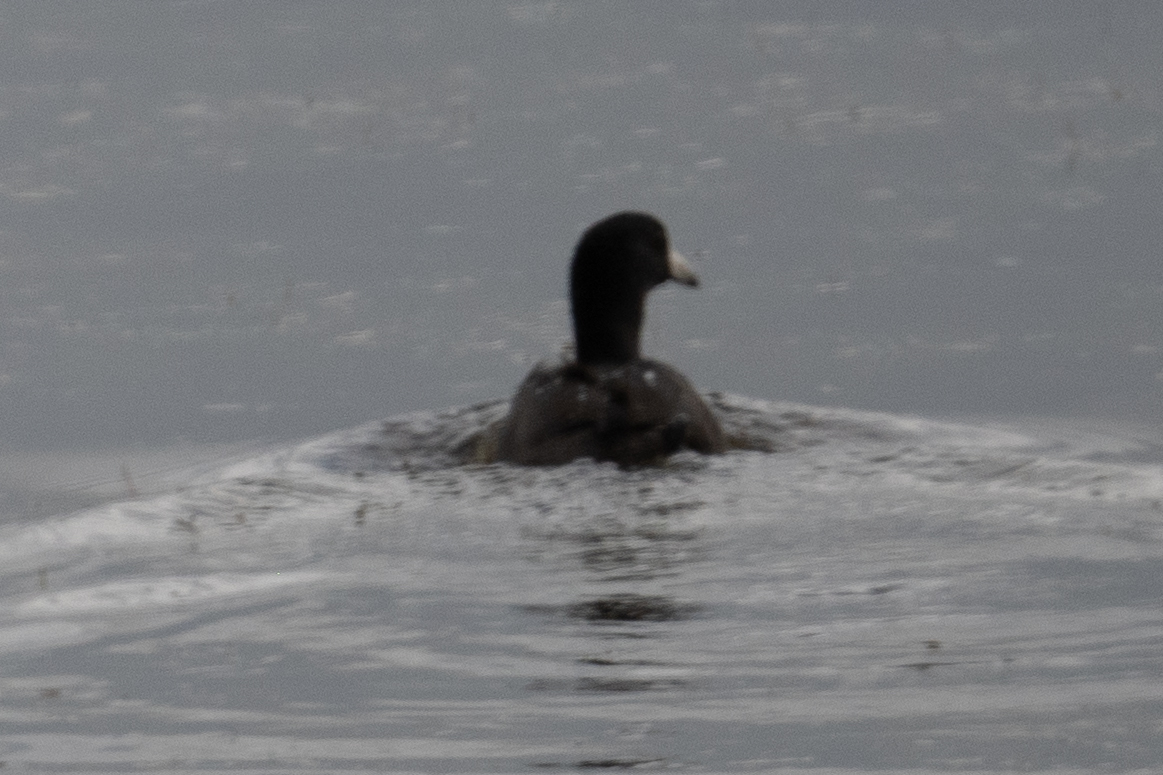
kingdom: Animalia
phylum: Chordata
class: Aves
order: Gruiformes
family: Rallidae
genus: Fulica
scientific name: Fulica americana
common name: American coot
